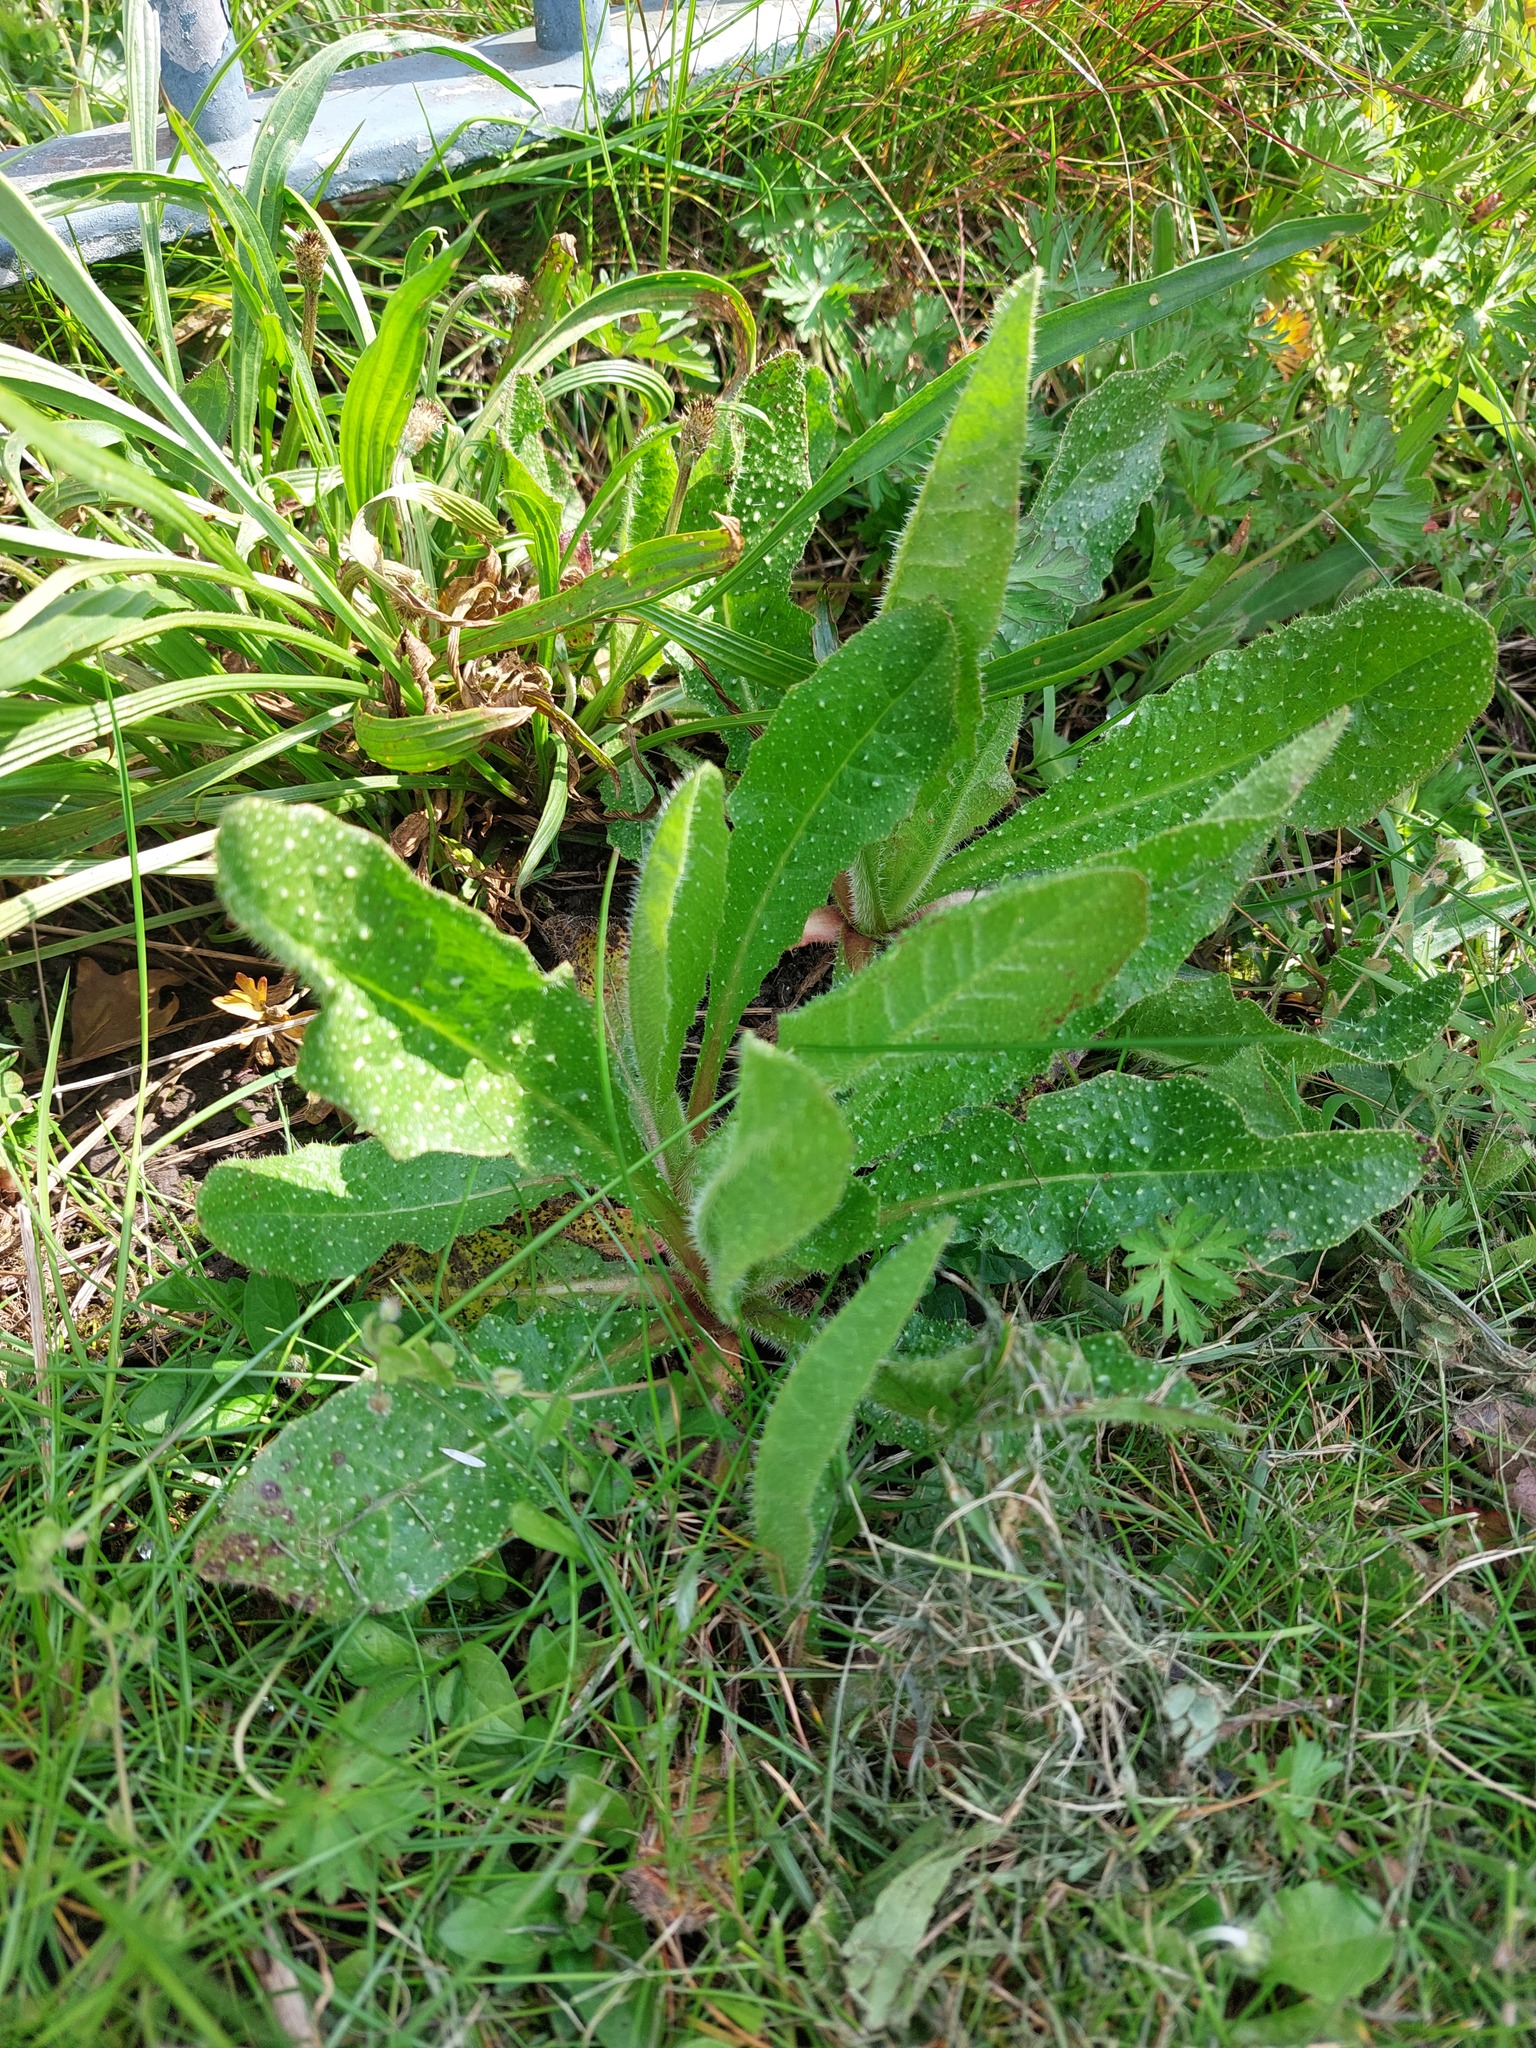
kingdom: Plantae
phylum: Tracheophyta
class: Magnoliopsida
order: Asterales
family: Asteraceae
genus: Helminthotheca
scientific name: Helminthotheca echioides
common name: Ox-tongue
